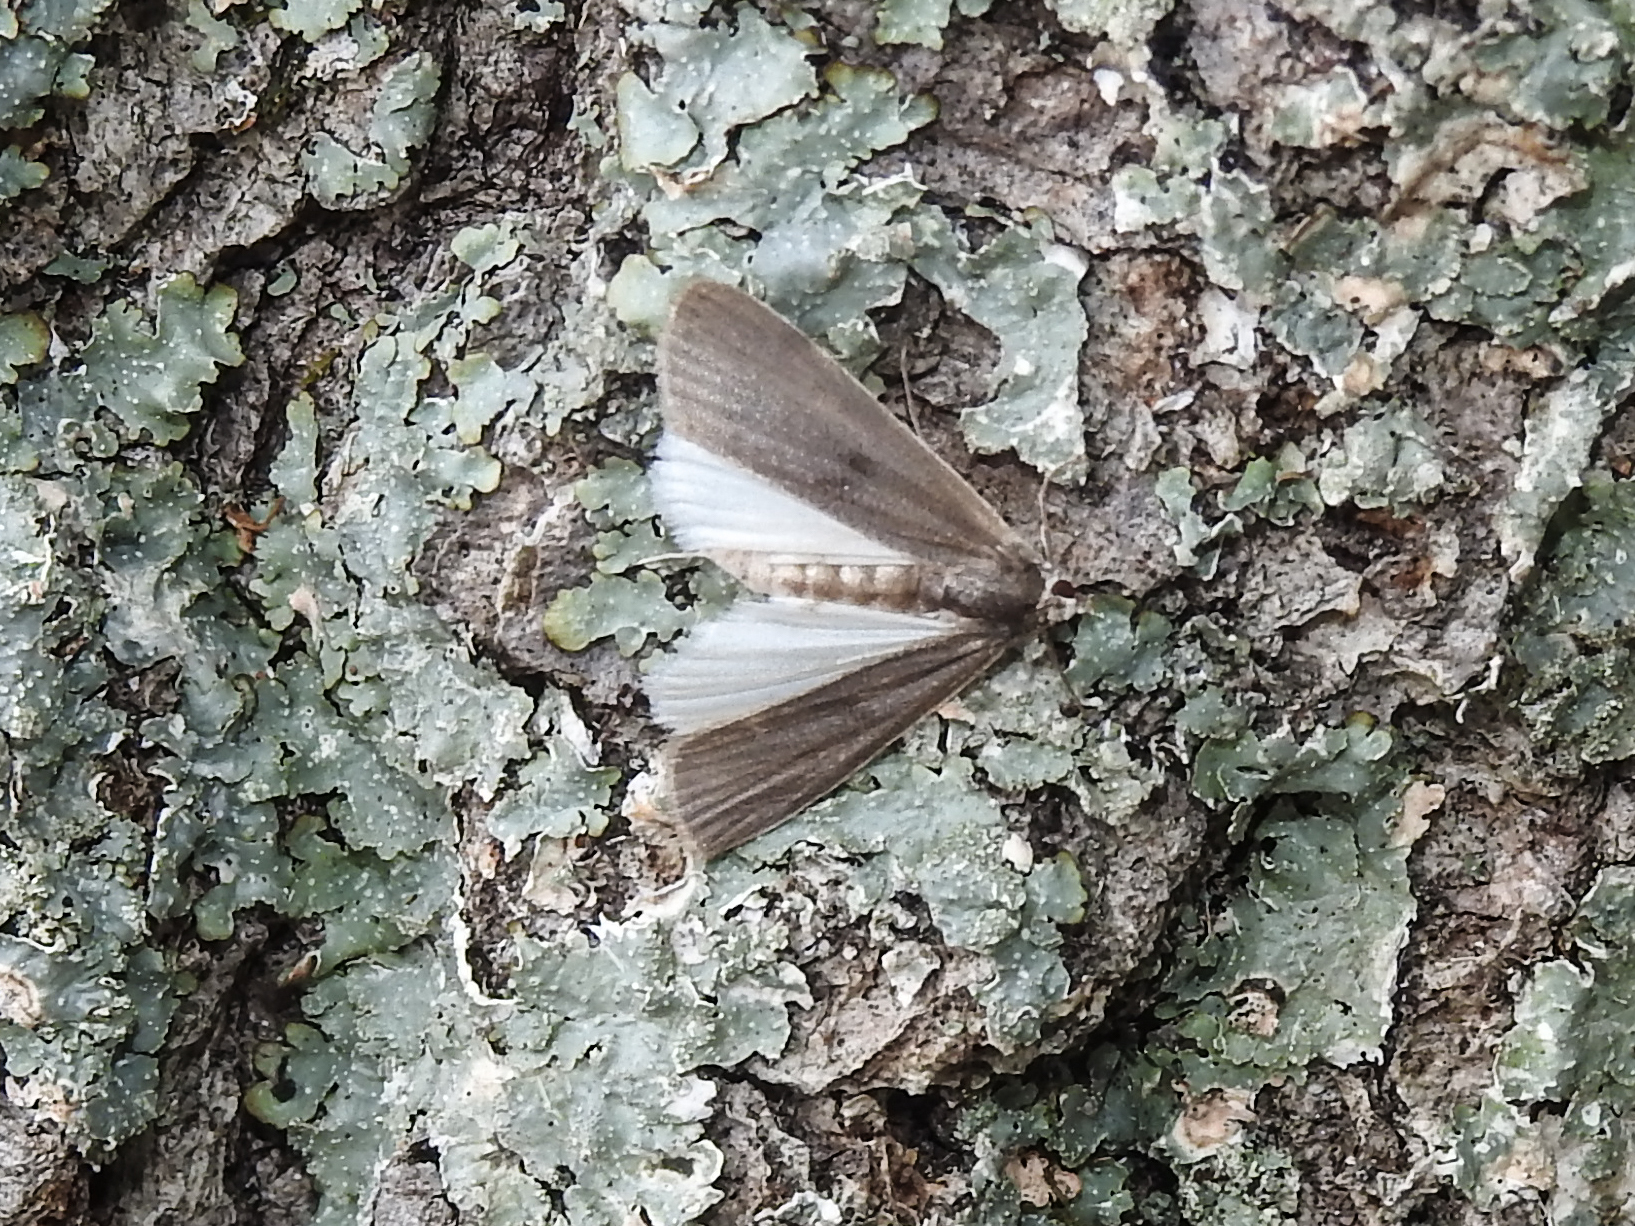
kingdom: Animalia
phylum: Arthropoda
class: Insecta
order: Lepidoptera
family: Crambidae
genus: Parapoynx
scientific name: Parapoynx maculalis
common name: Polymorphic pondweed moth
